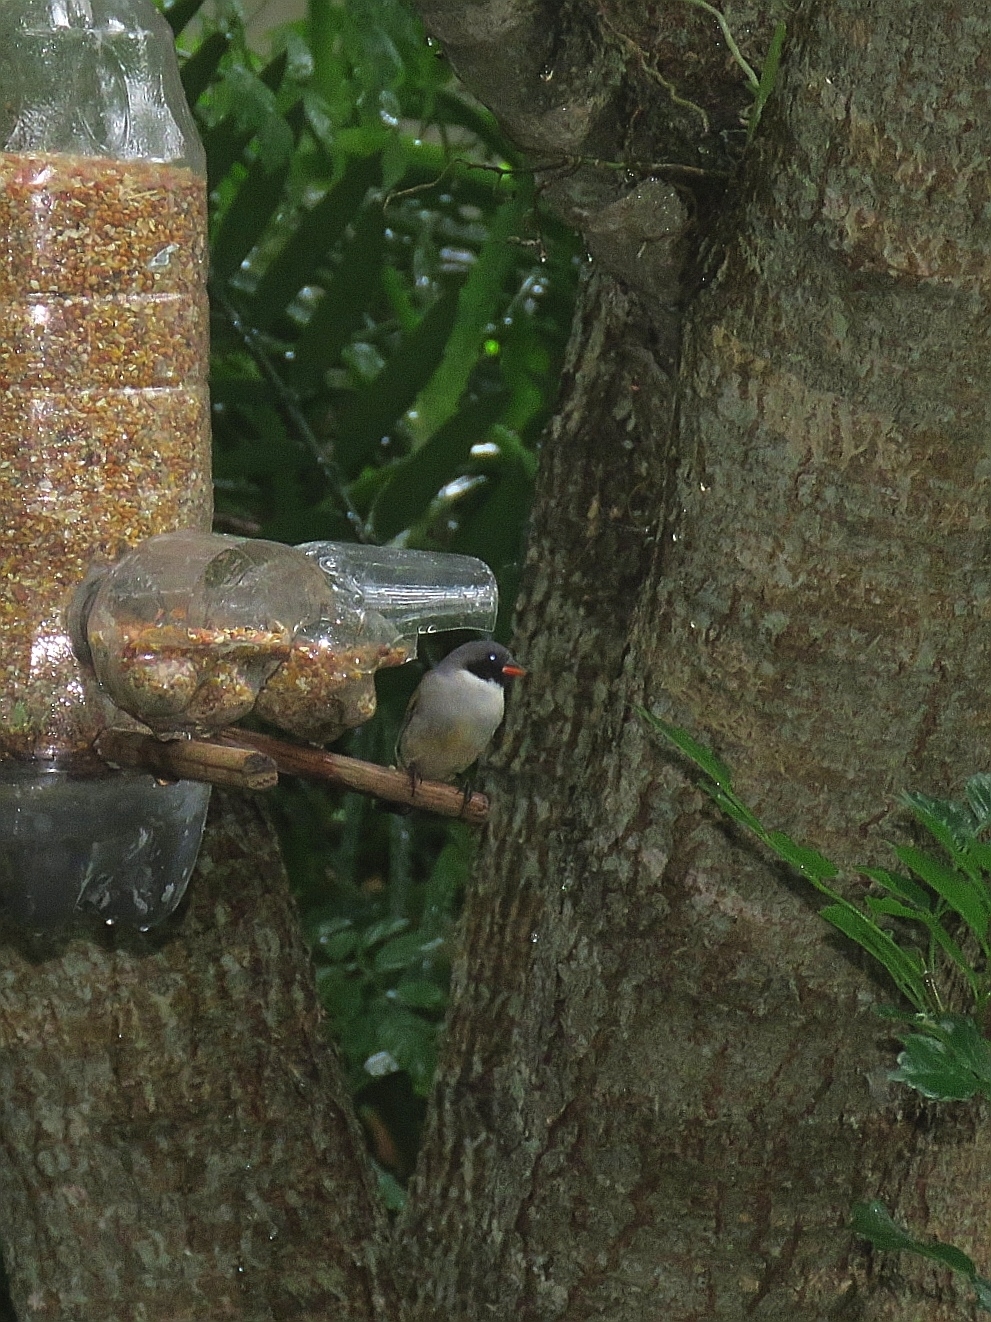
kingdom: Animalia
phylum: Chordata
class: Aves
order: Passeriformes
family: Estrildidae
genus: Coccopygia
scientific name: Coccopygia melanotis
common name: Swee waxbill
